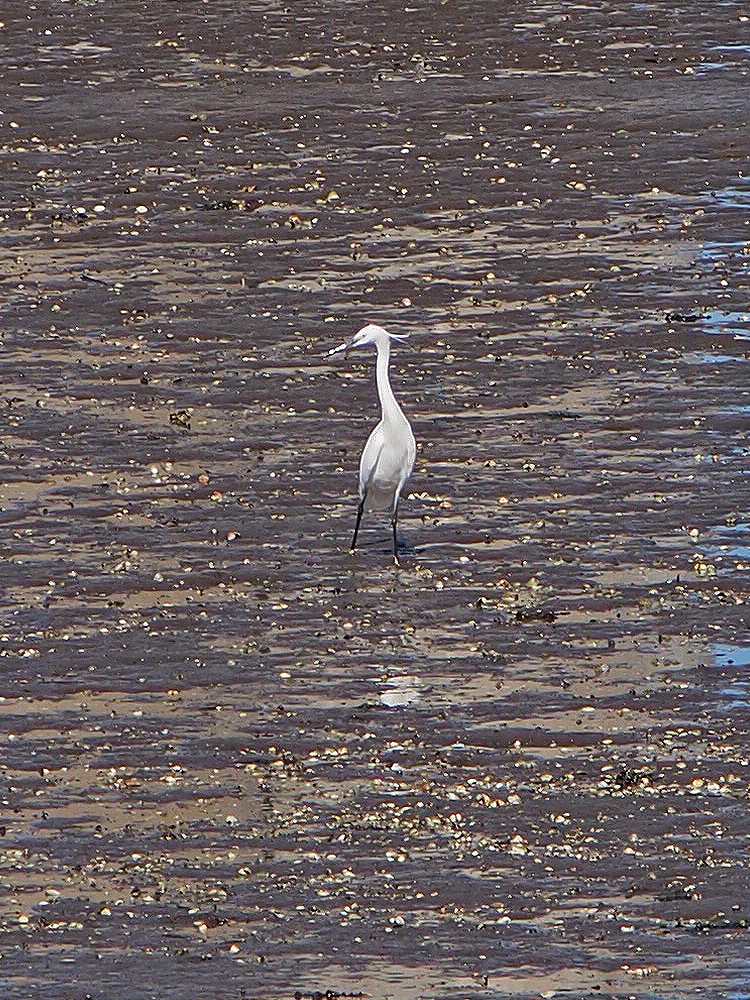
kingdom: Animalia
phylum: Chordata
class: Aves
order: Pelecaniformes
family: Ardeidae
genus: Egretta
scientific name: Egretta garzetta
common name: Little egret
